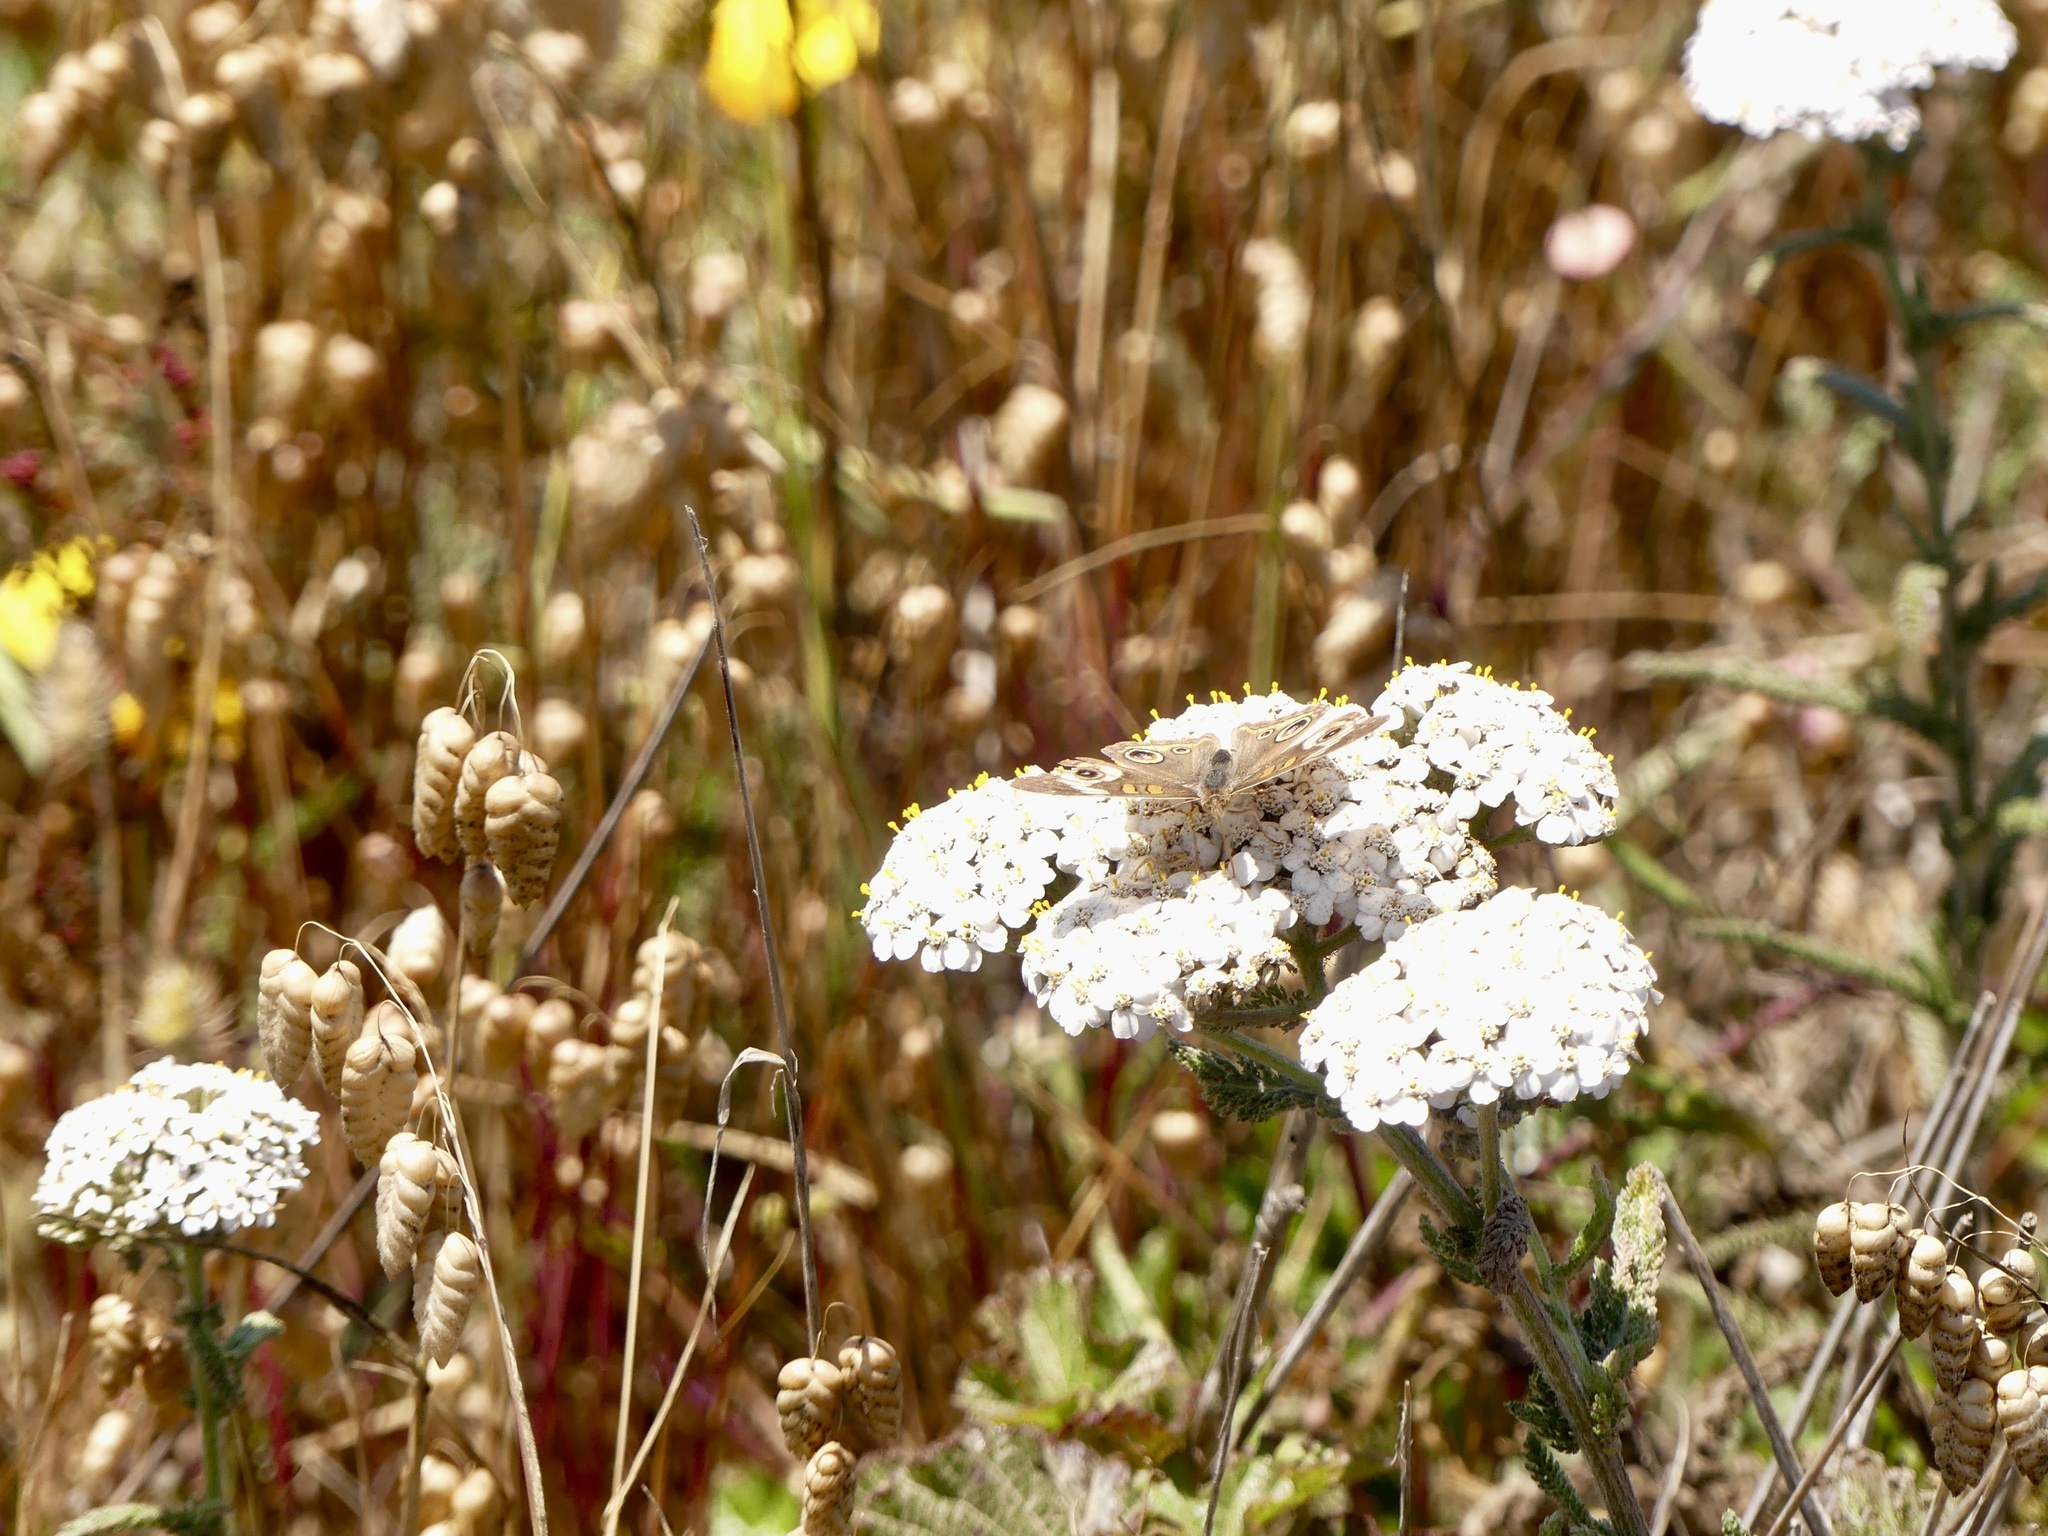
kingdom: Animalia
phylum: Arthropoda
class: Insecta
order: Lepidoptera
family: Nymphalidae
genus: Junonia
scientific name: Junonia grisea
